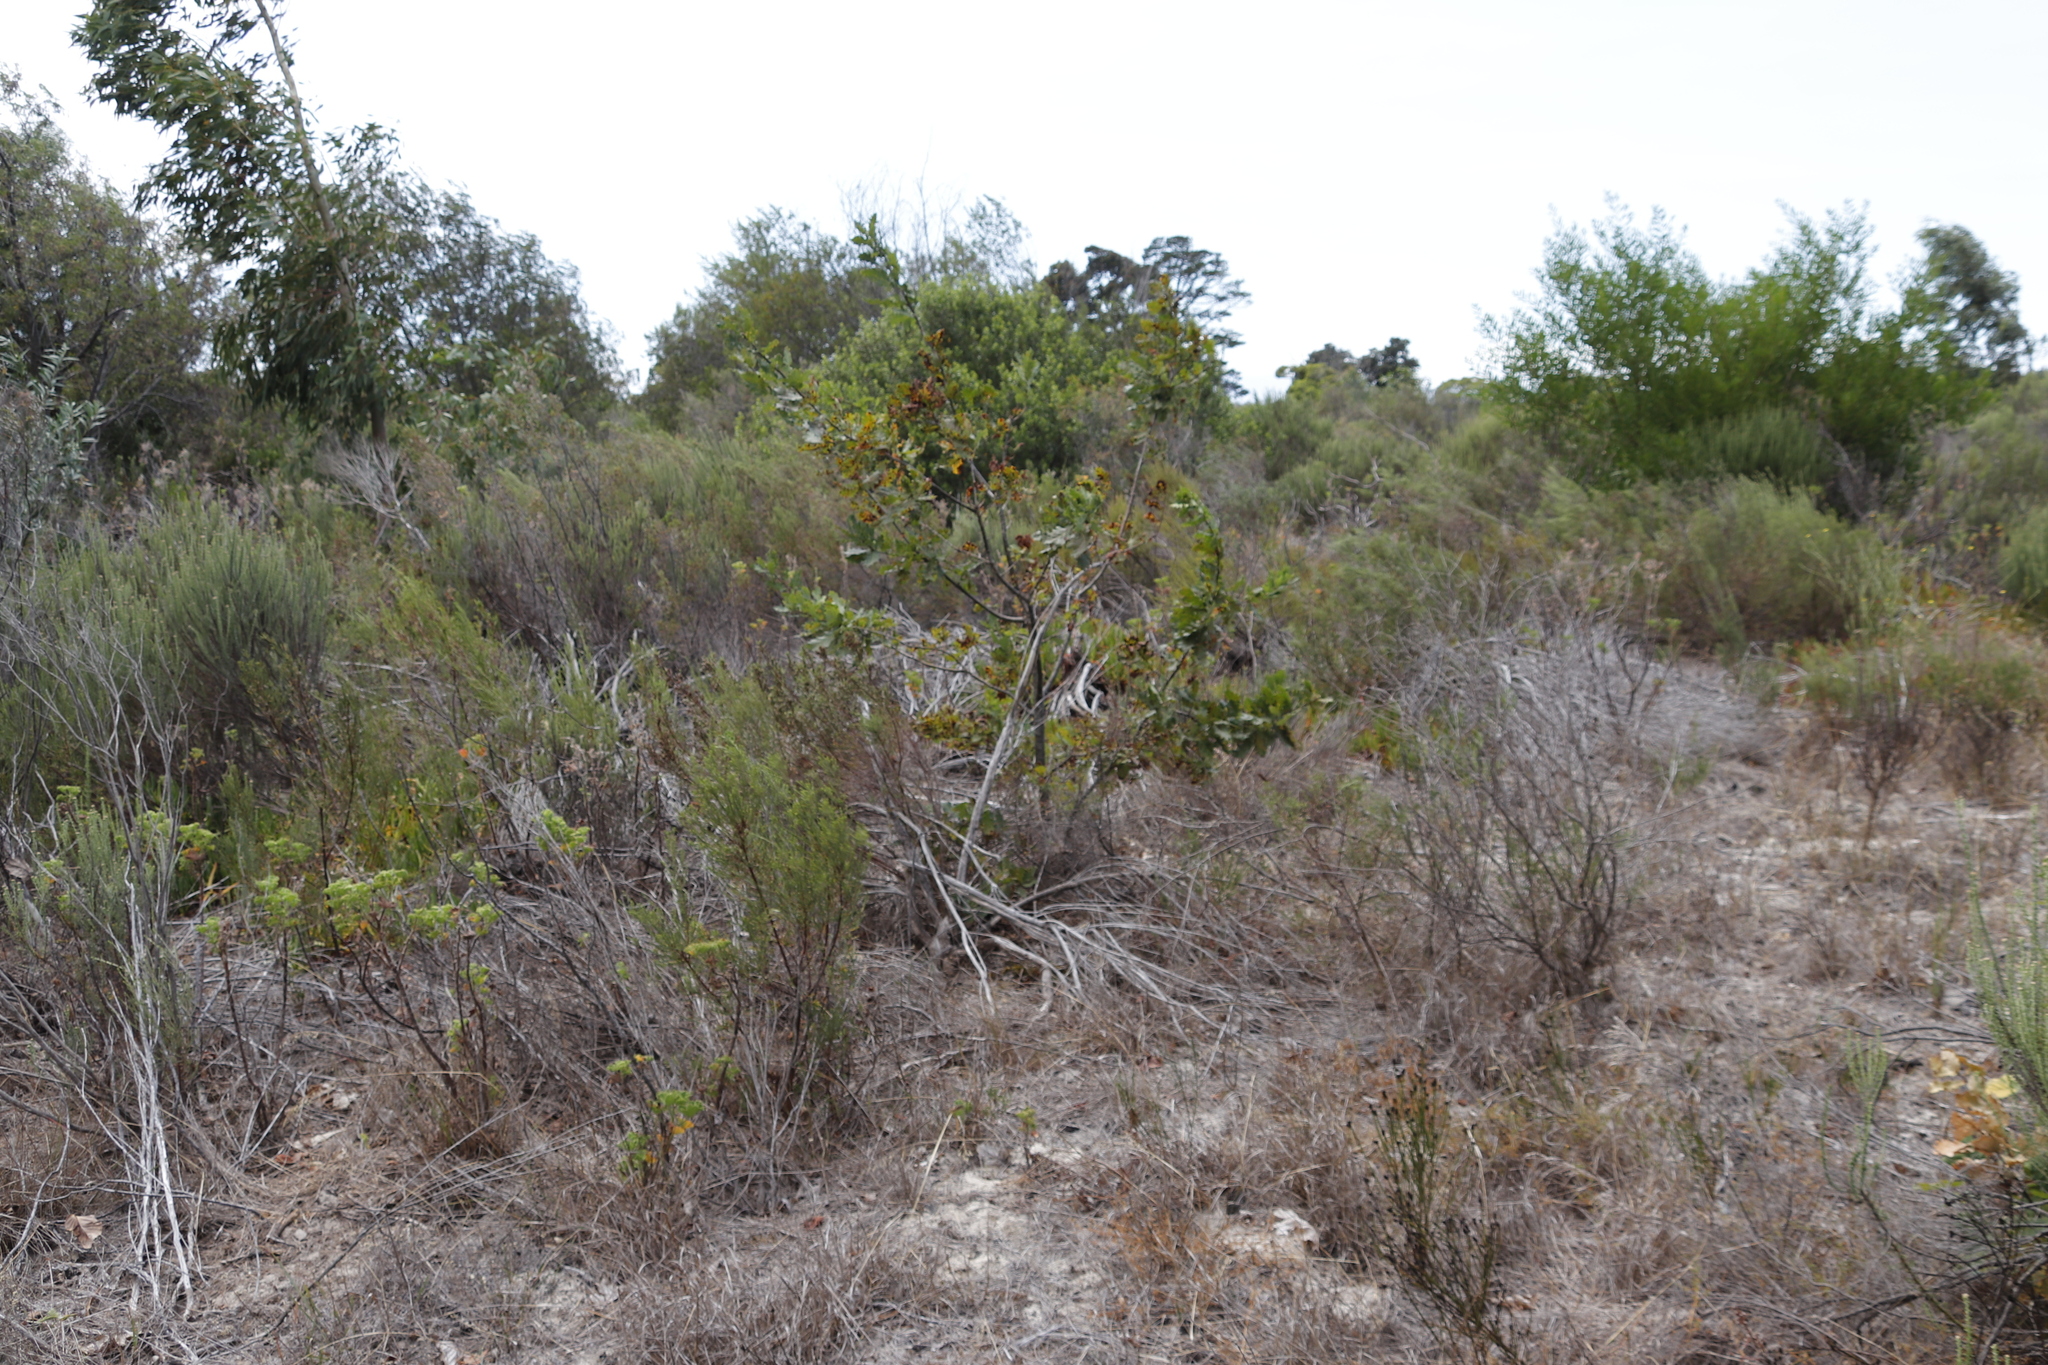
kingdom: Plantae
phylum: Tracheophyta
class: Magnoliopsida
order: Fagales
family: Fagaceae
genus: Quercus
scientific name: Quercus robur
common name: Pedunculate oak
